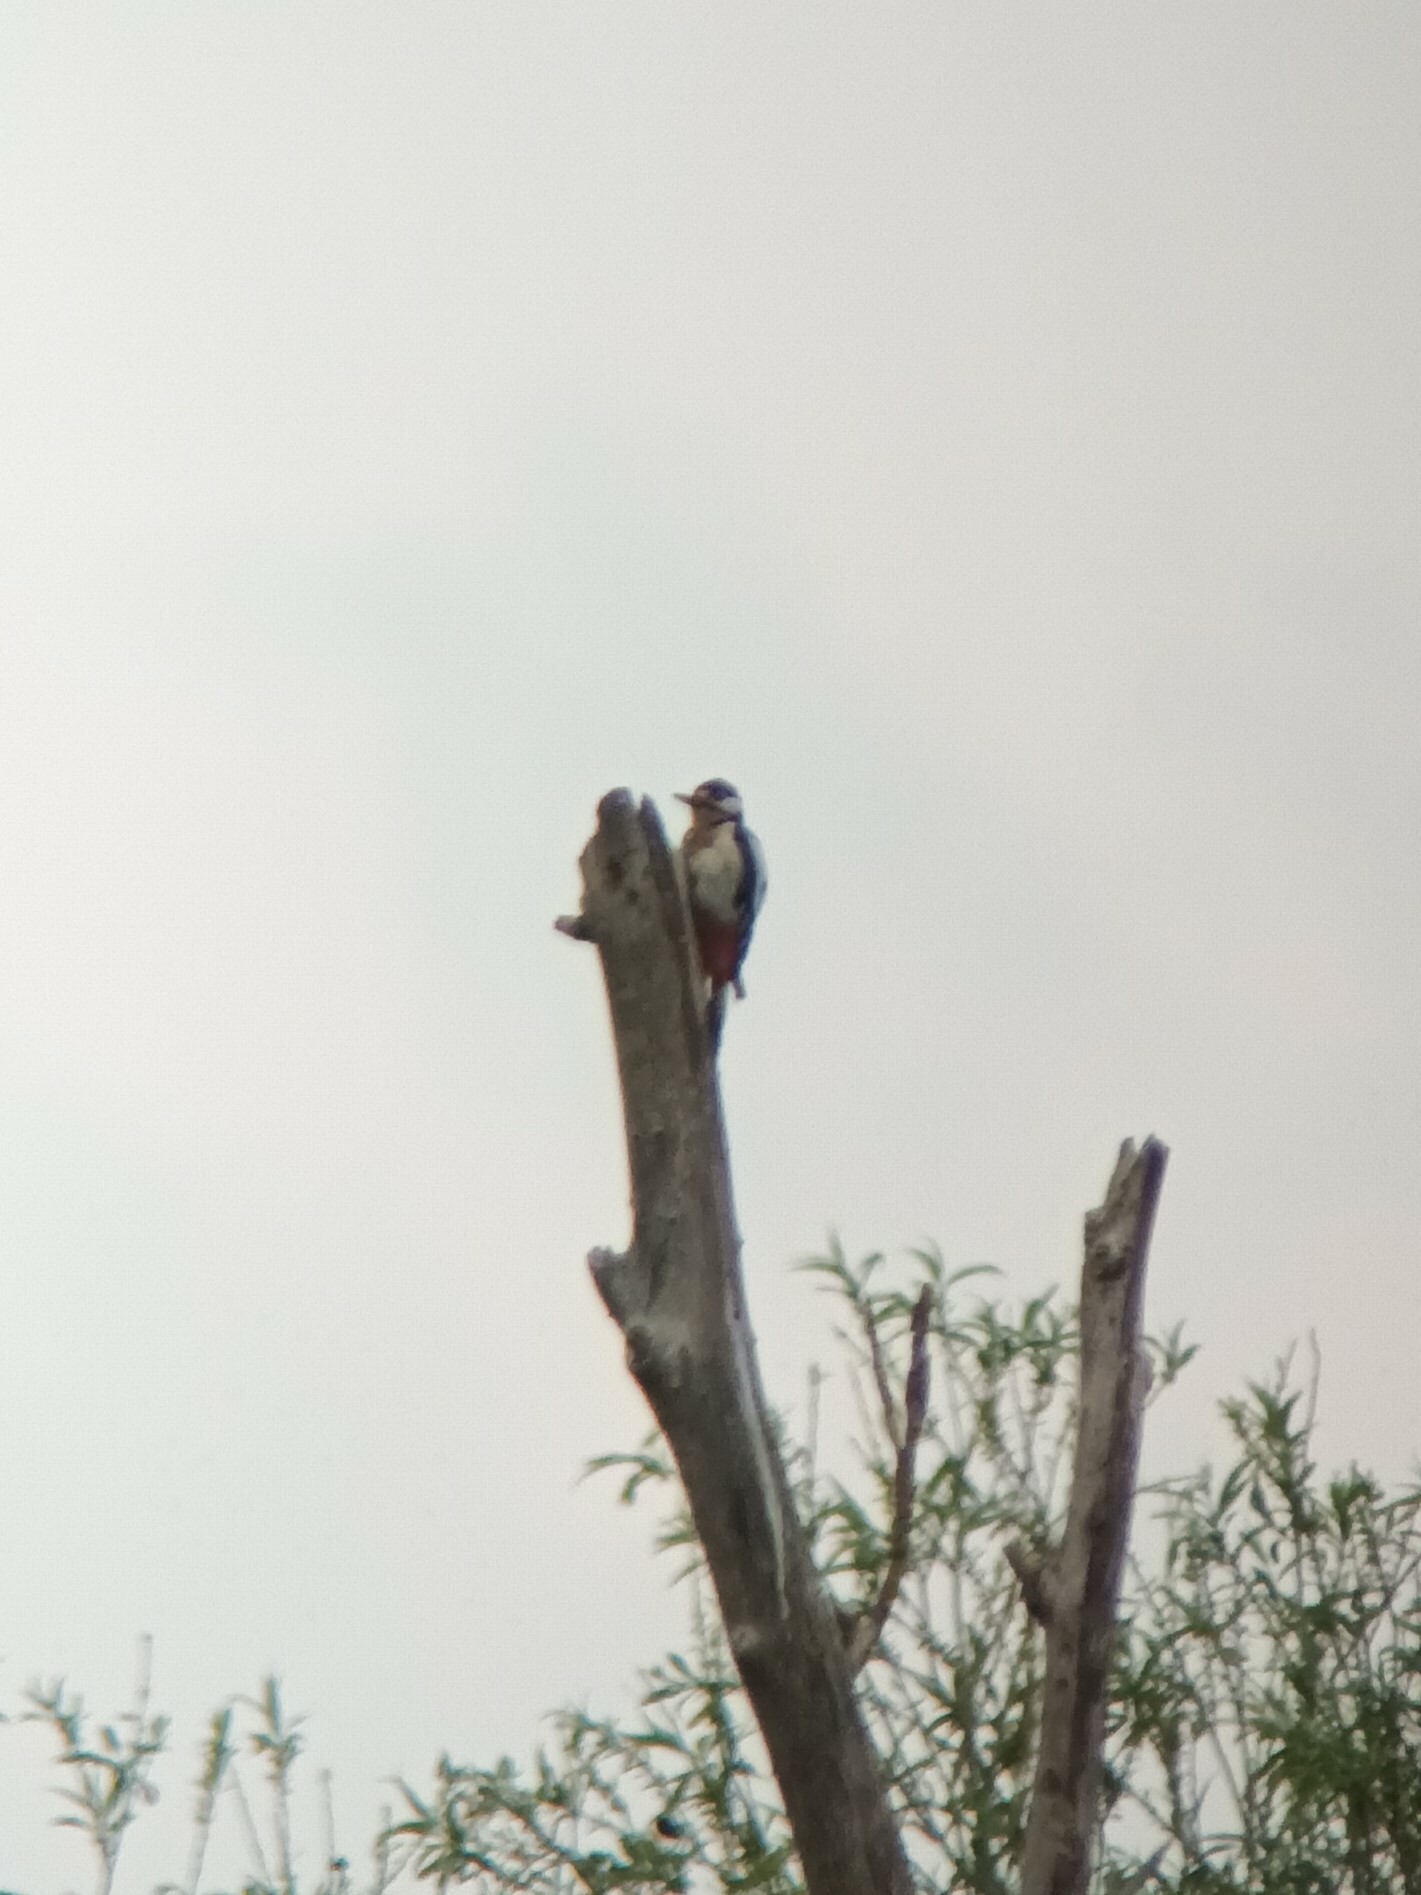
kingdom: Animalia
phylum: Chordata
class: Aves
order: Piciformes
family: Picidae
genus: Dendrocopos
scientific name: Dendrocopos major
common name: Great spotted woodpecker
